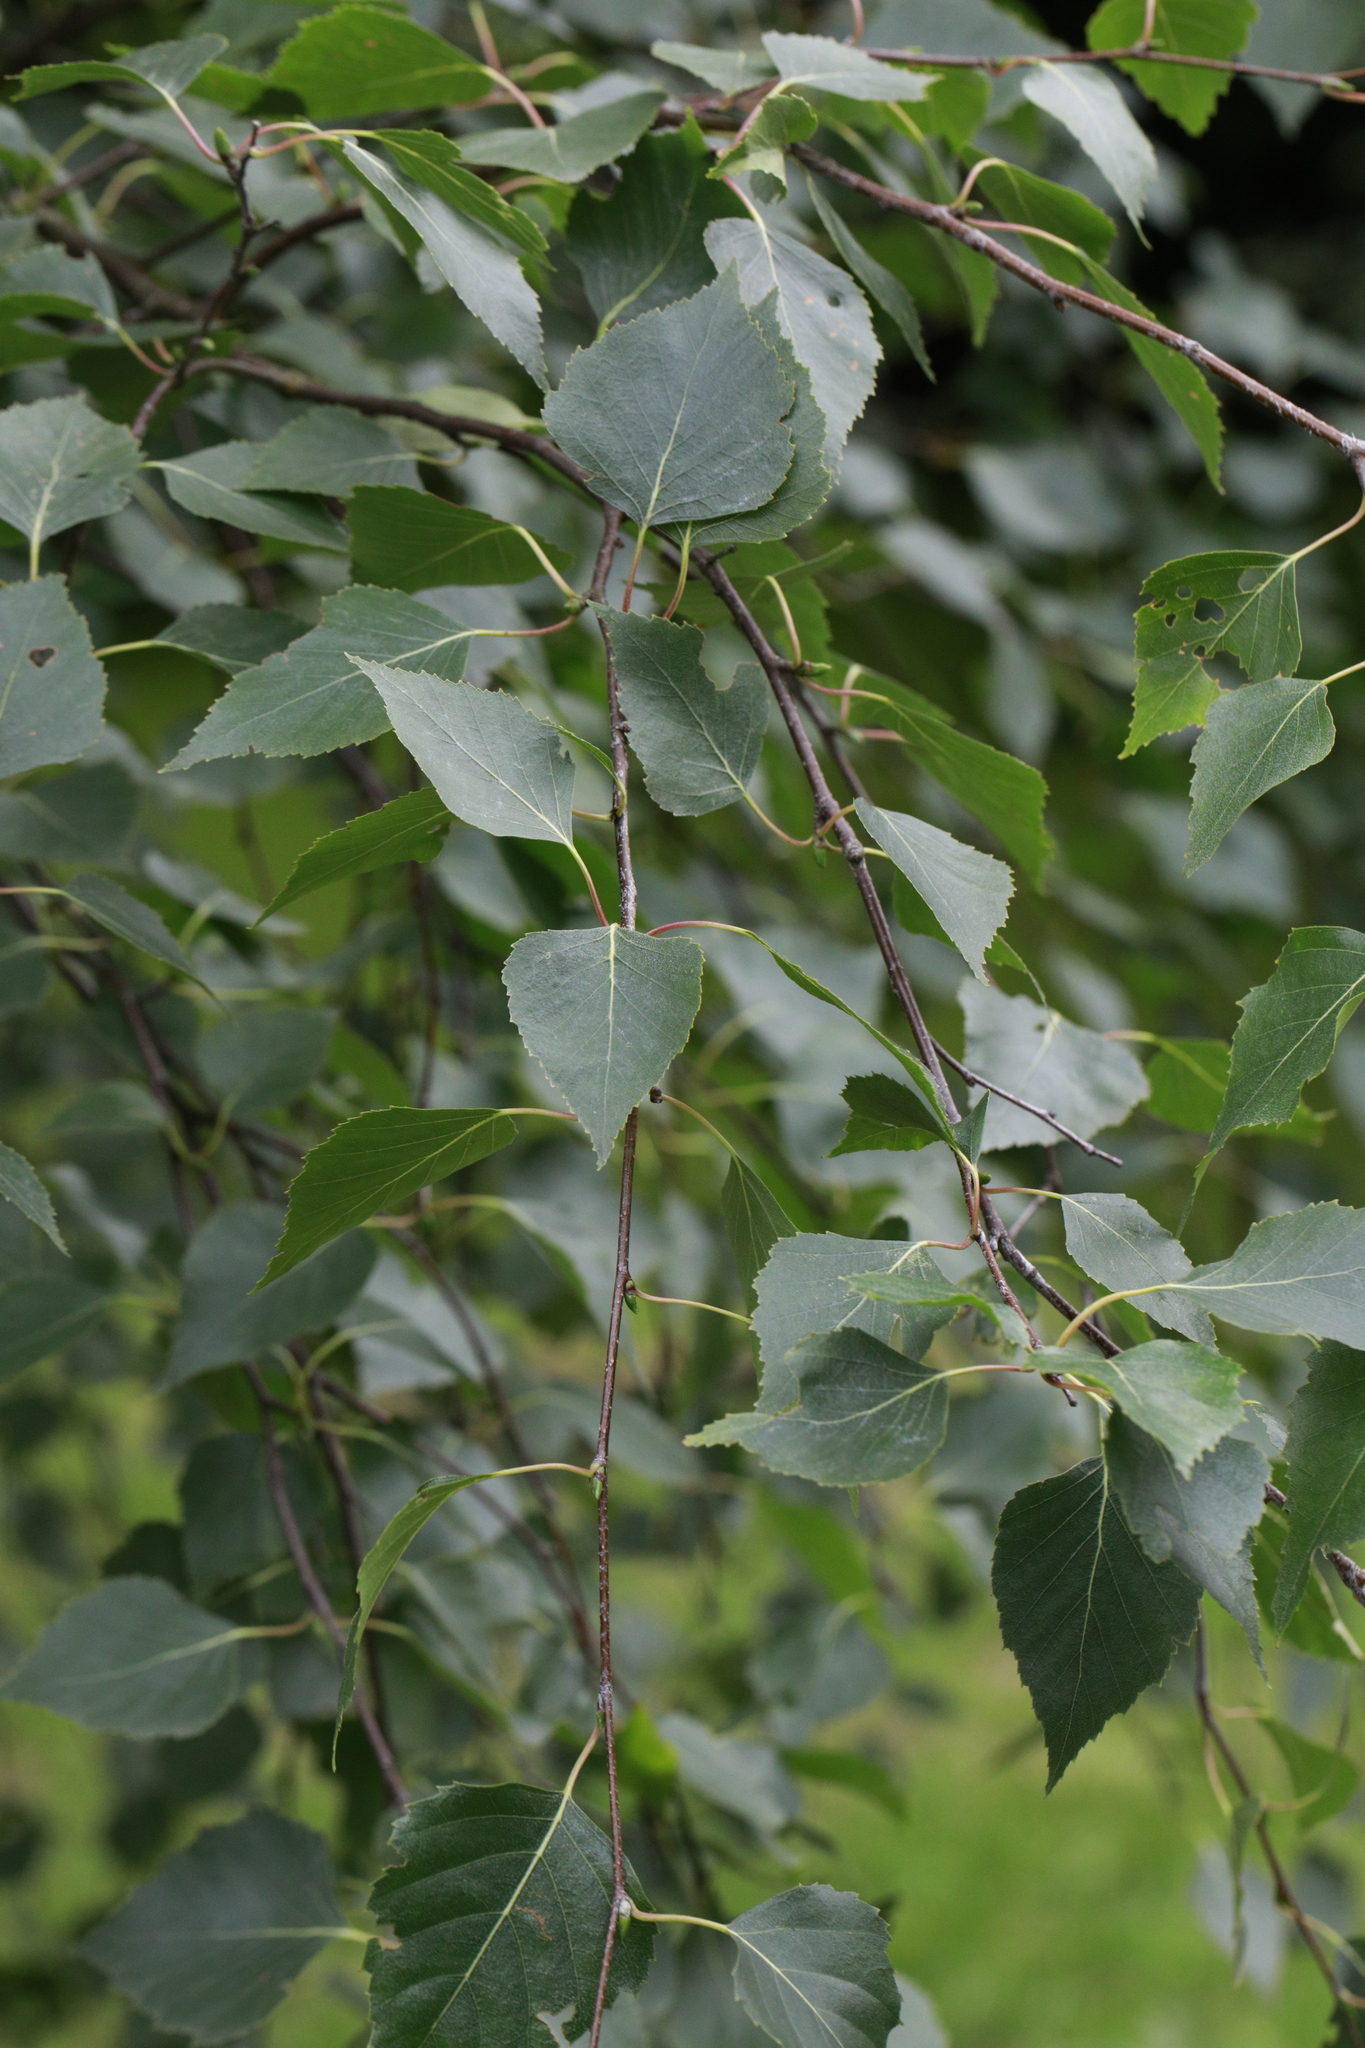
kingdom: Plantae
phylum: Tracheophyta
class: Magnoliopsida
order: Fagales
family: Betulaceae
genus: Betula
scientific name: Betula pendula
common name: Silver birch
